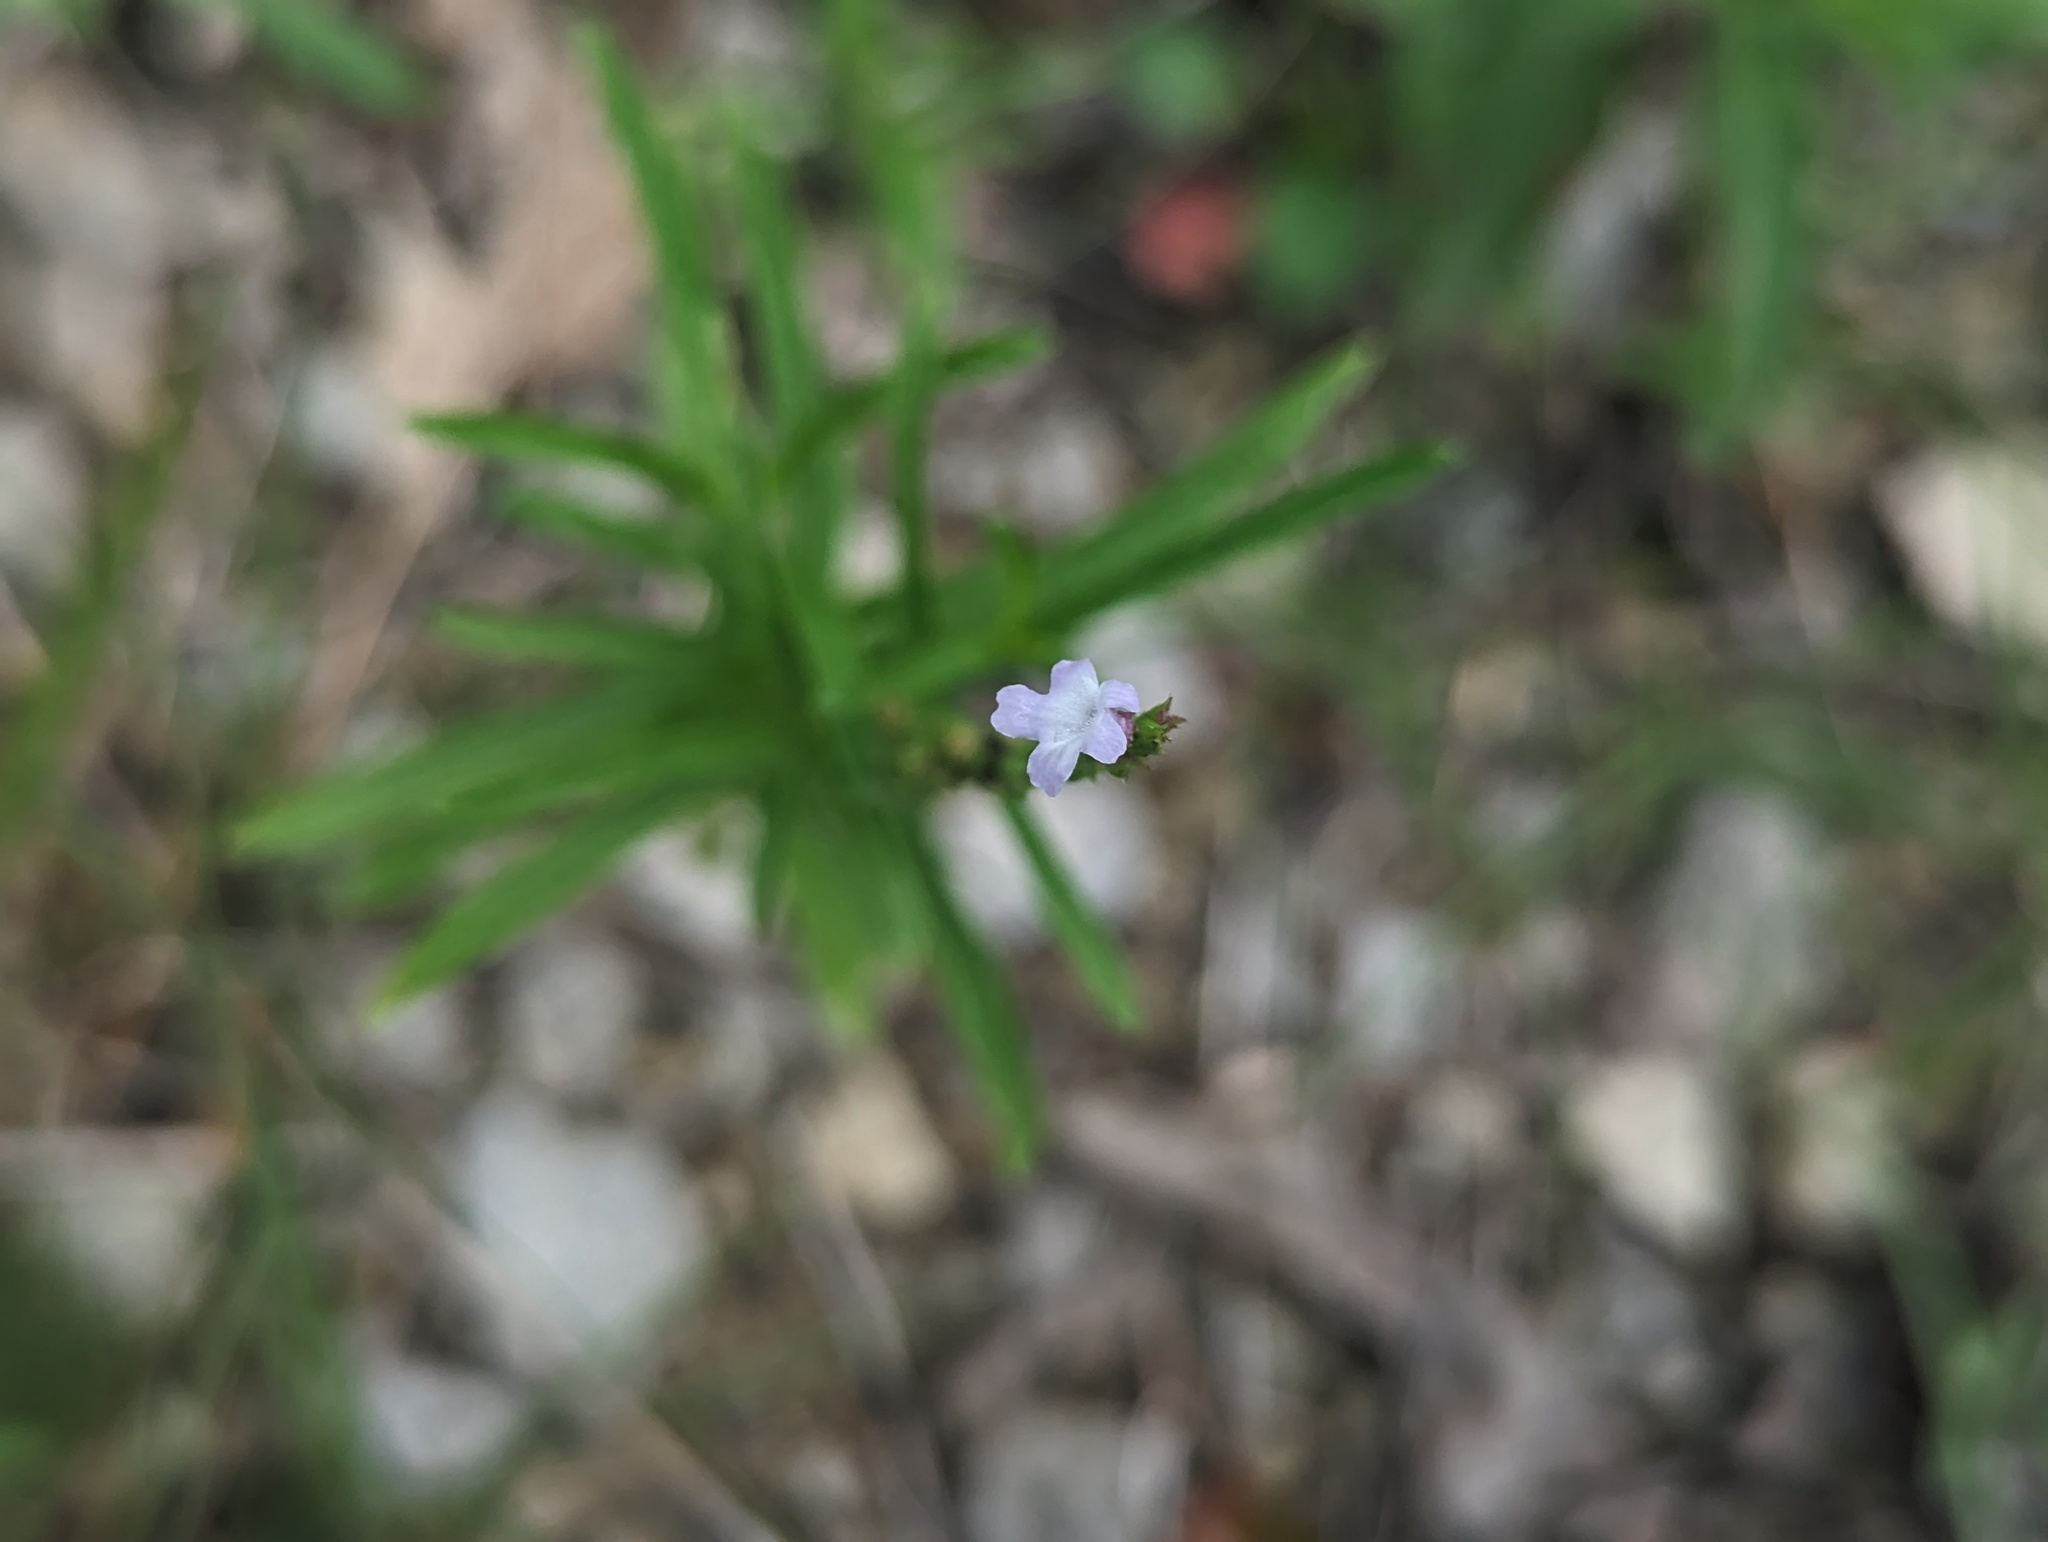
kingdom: Plantae
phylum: Tracheophyta
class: Magnoliopsida
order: Lamiales
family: Verbenaceae
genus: Verbena
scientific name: Verbena simplex
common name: Narrow-leaf vervain
